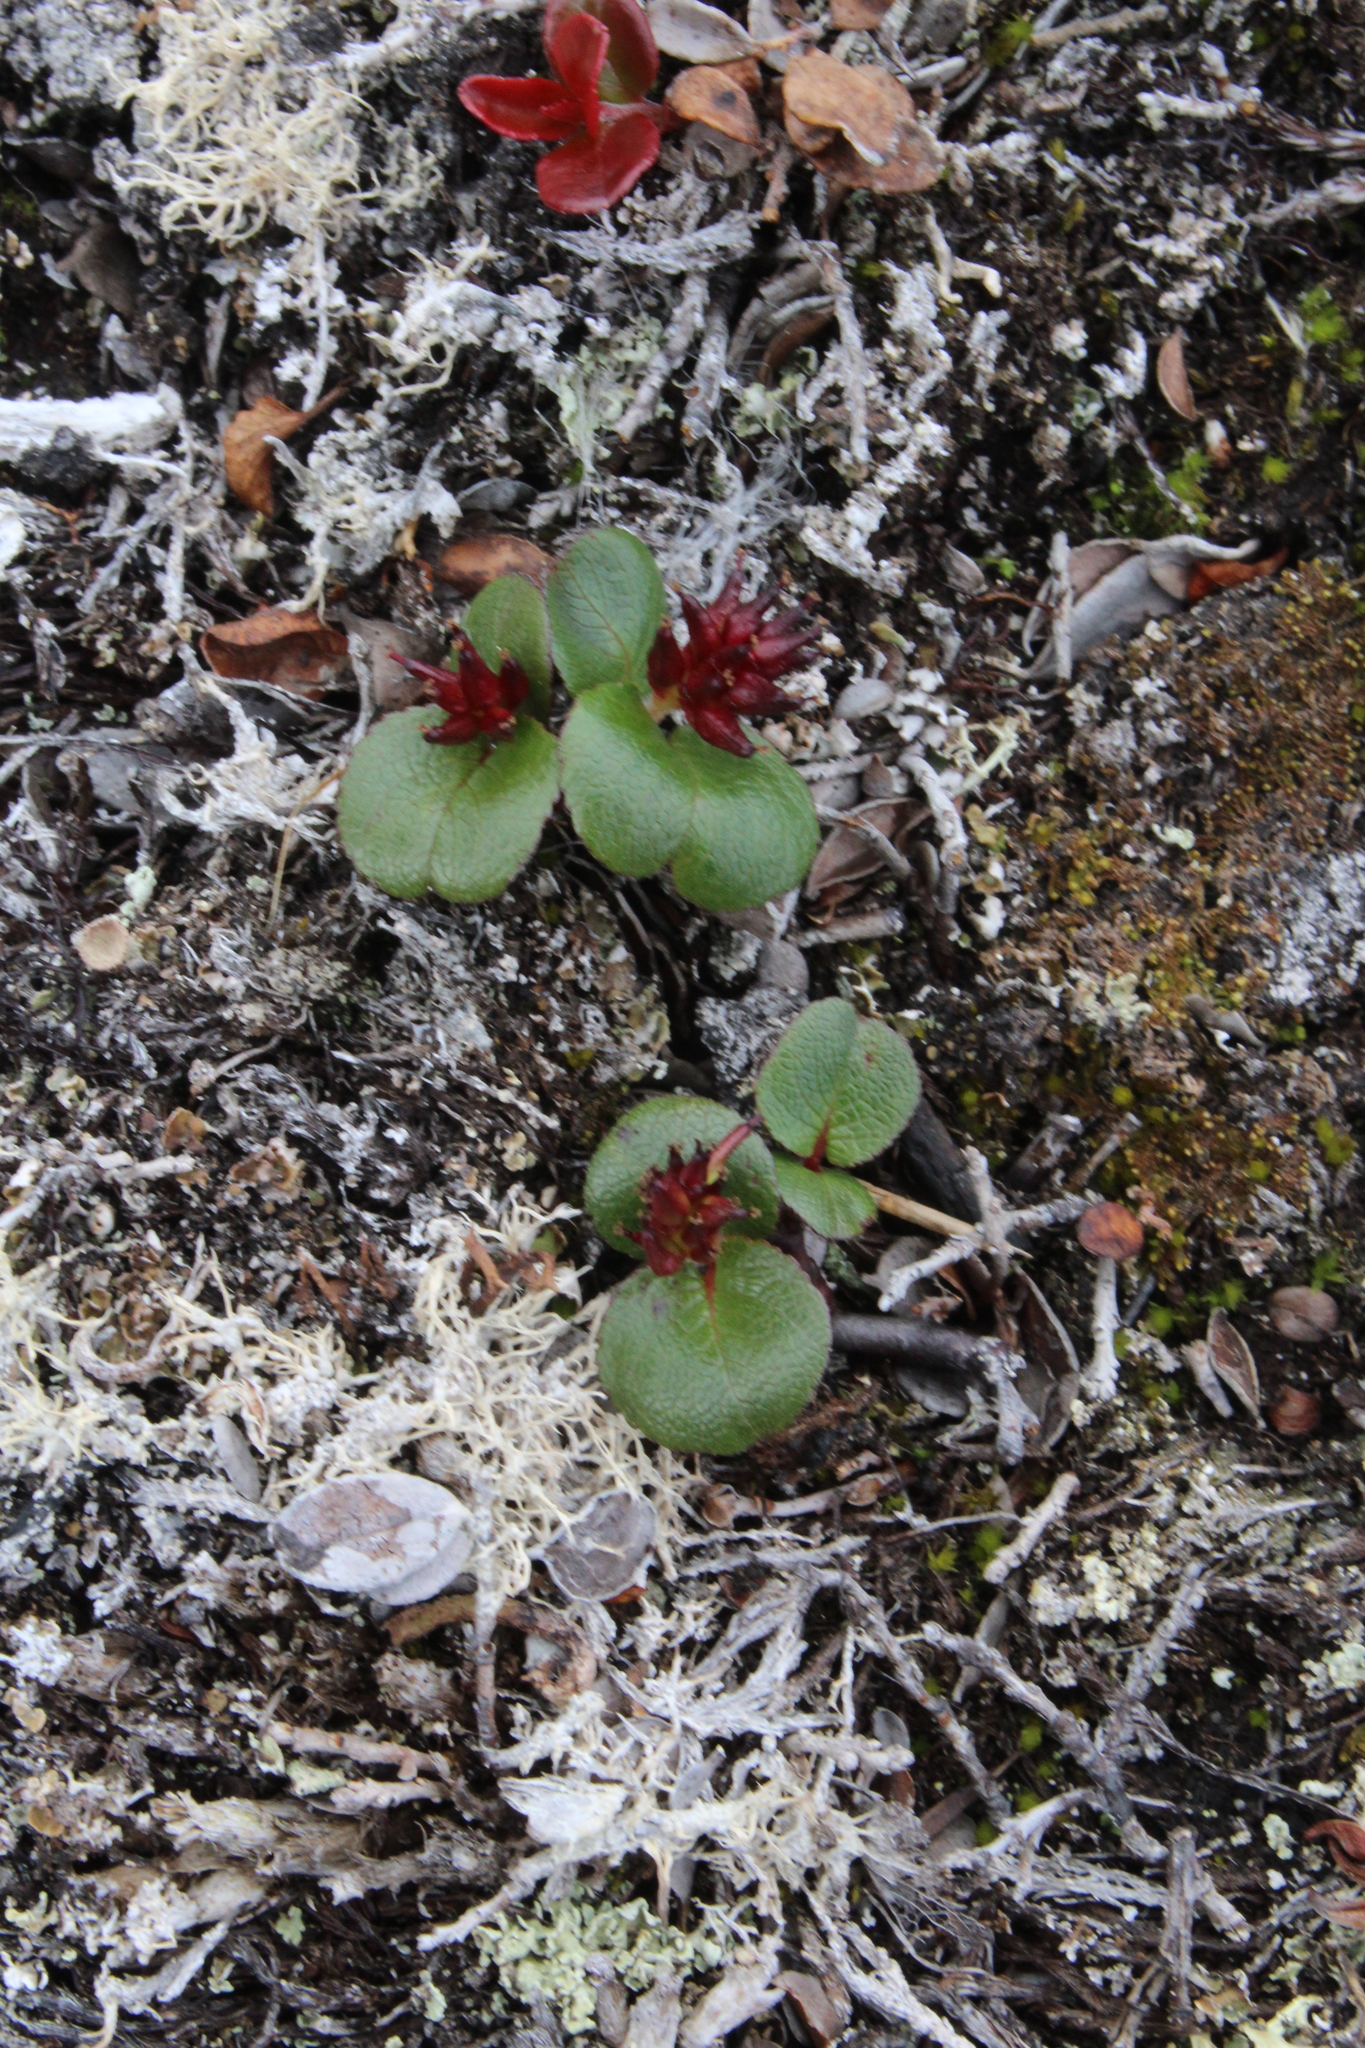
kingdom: Plantae
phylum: Tracheophyta
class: Magnoliopsida
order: Malpighiales
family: Salicaceae
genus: Salix
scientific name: Salix herbacea
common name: Dwarf willow
